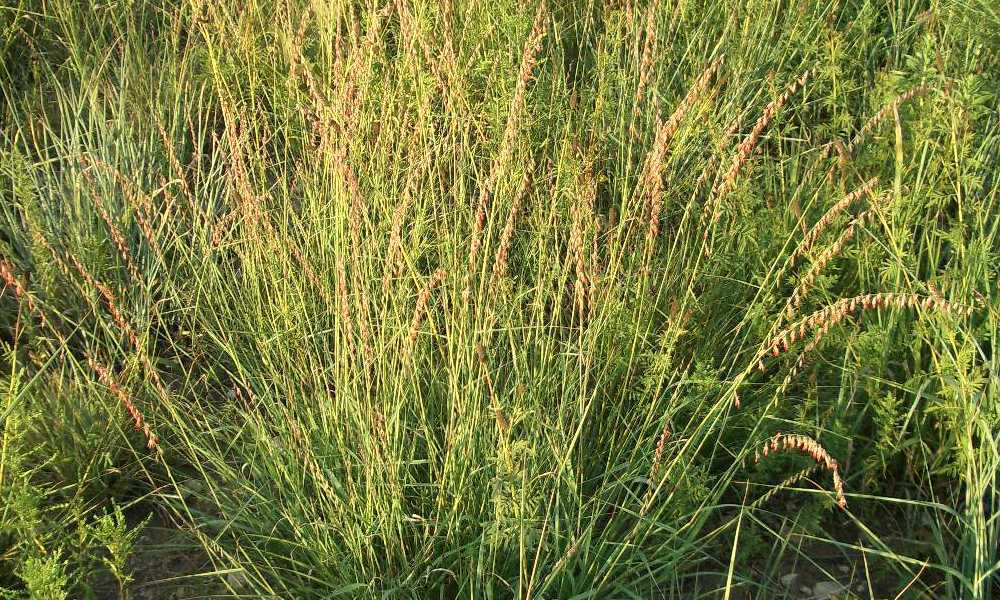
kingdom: Plantae
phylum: Tracheophyta
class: Liliopsida
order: Poales
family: Poaceae
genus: Bouteloua
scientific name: Bouteloua curtipendula
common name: Side-oats grama
